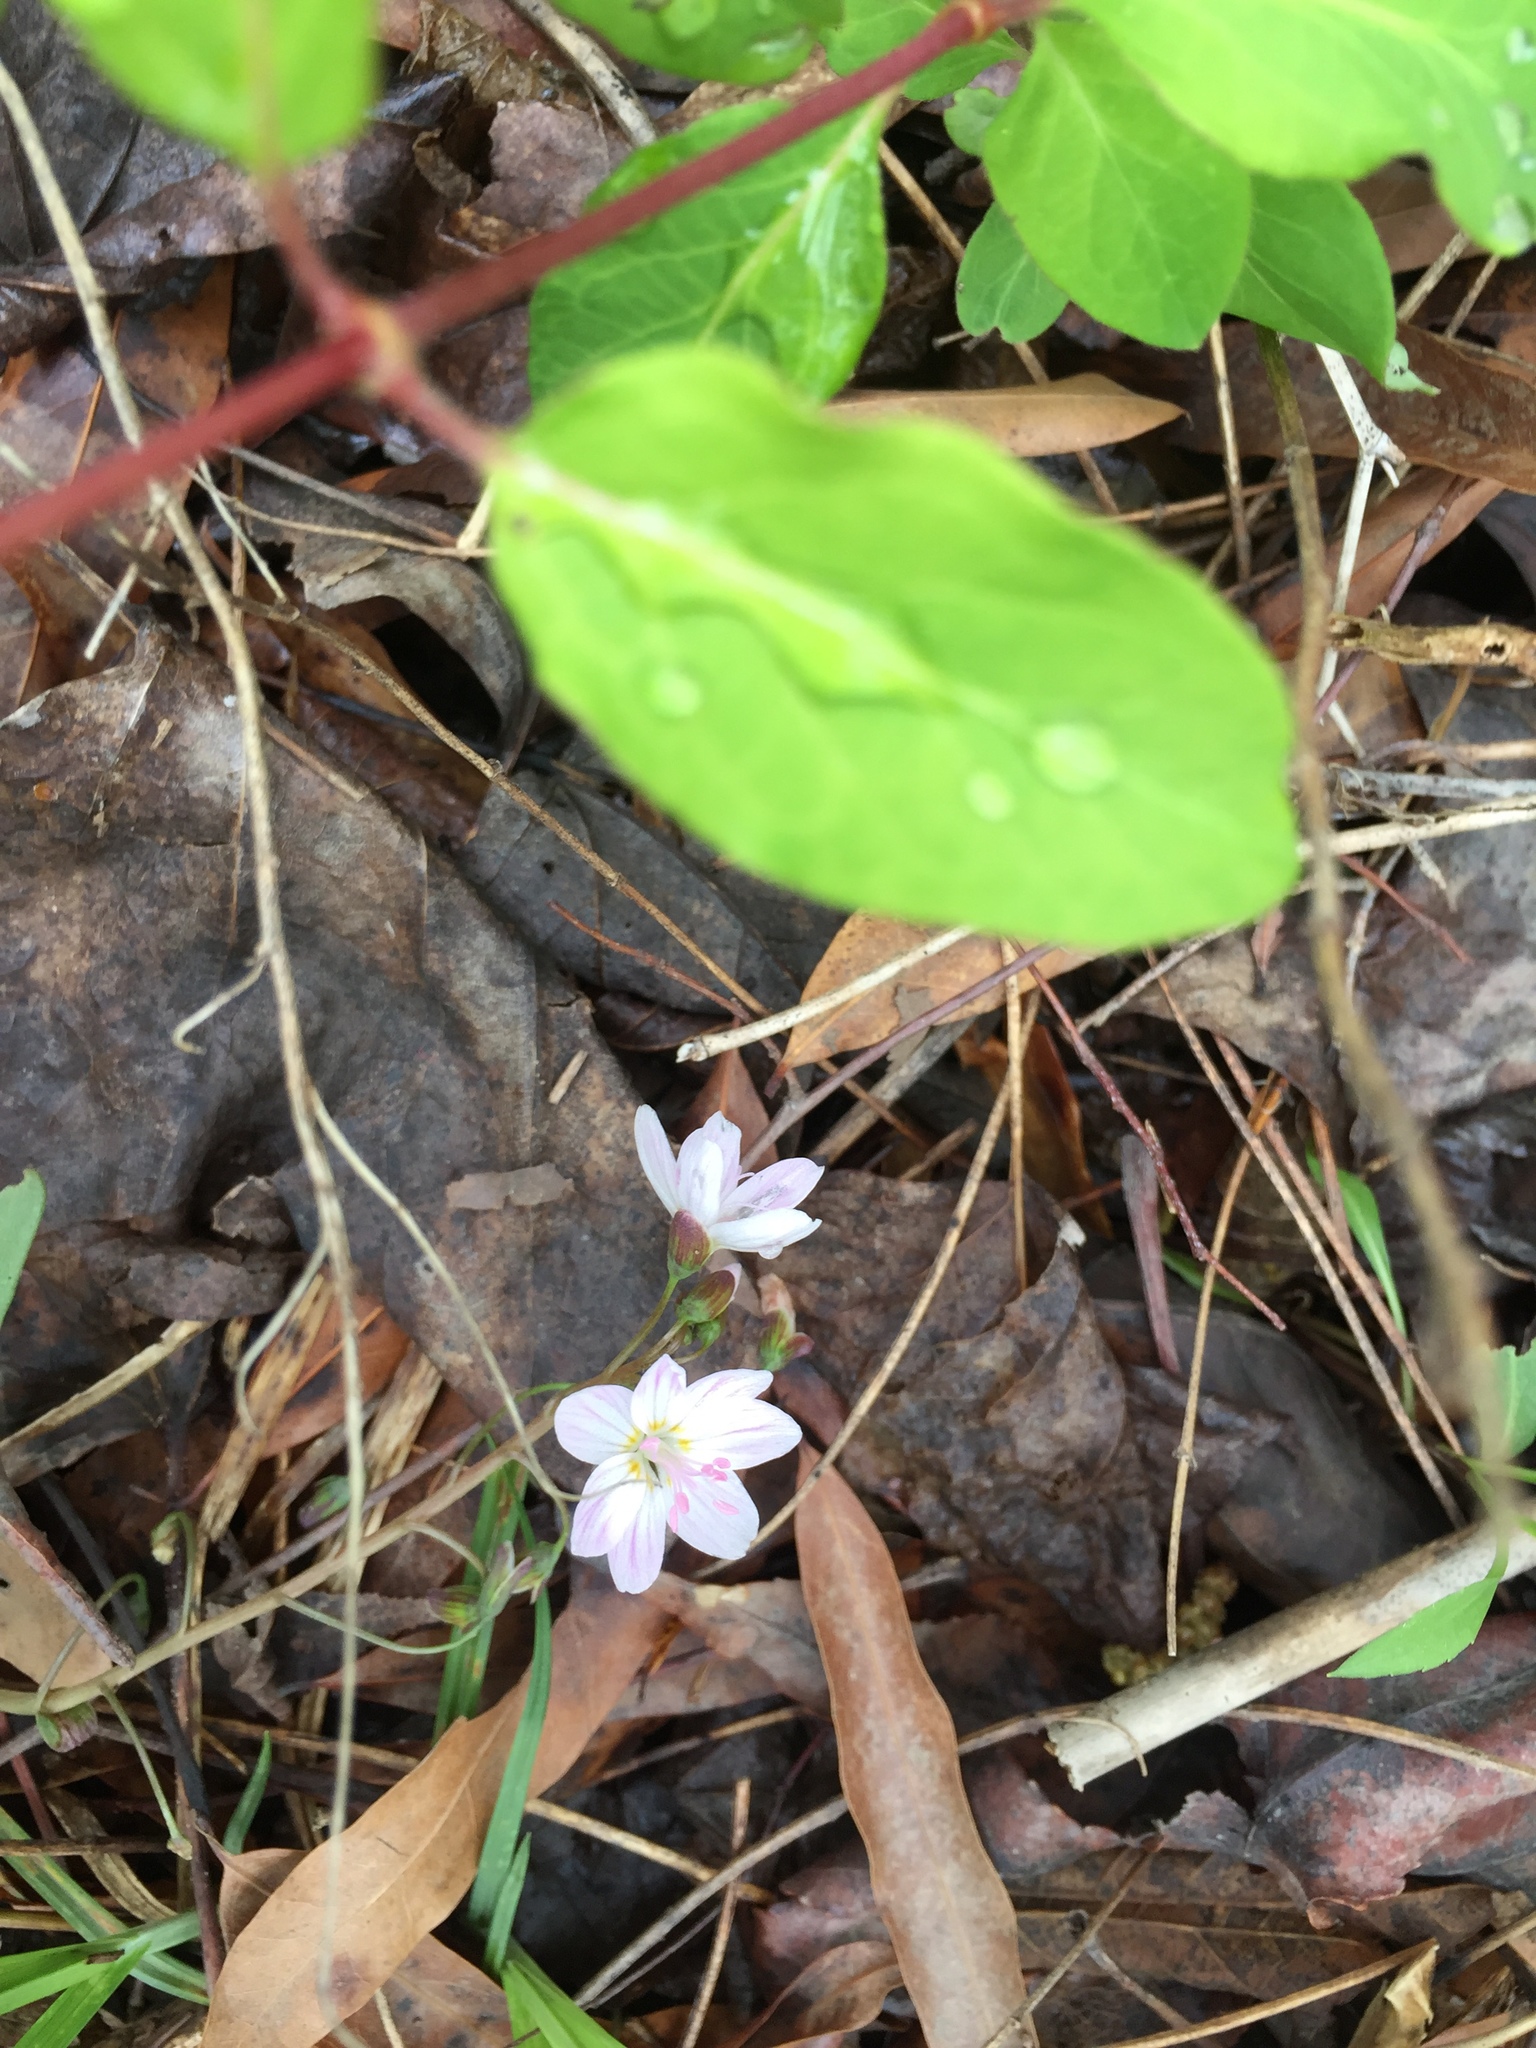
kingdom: Plantae
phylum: Tracheophyta
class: Magnoliopsida
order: Caryophyllales
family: Montiaceae
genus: Claytonia
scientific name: Claytonia virginica
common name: Virginia springbeauty
